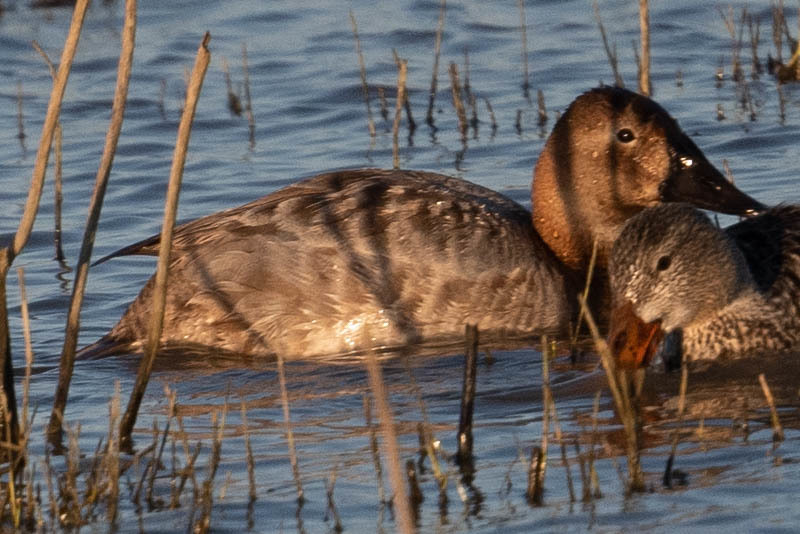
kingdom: Animalia
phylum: Chordata
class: Aves
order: Anseriformes
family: Anatidae
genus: Aythya
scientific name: Aythya valisineria
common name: Canvasback
